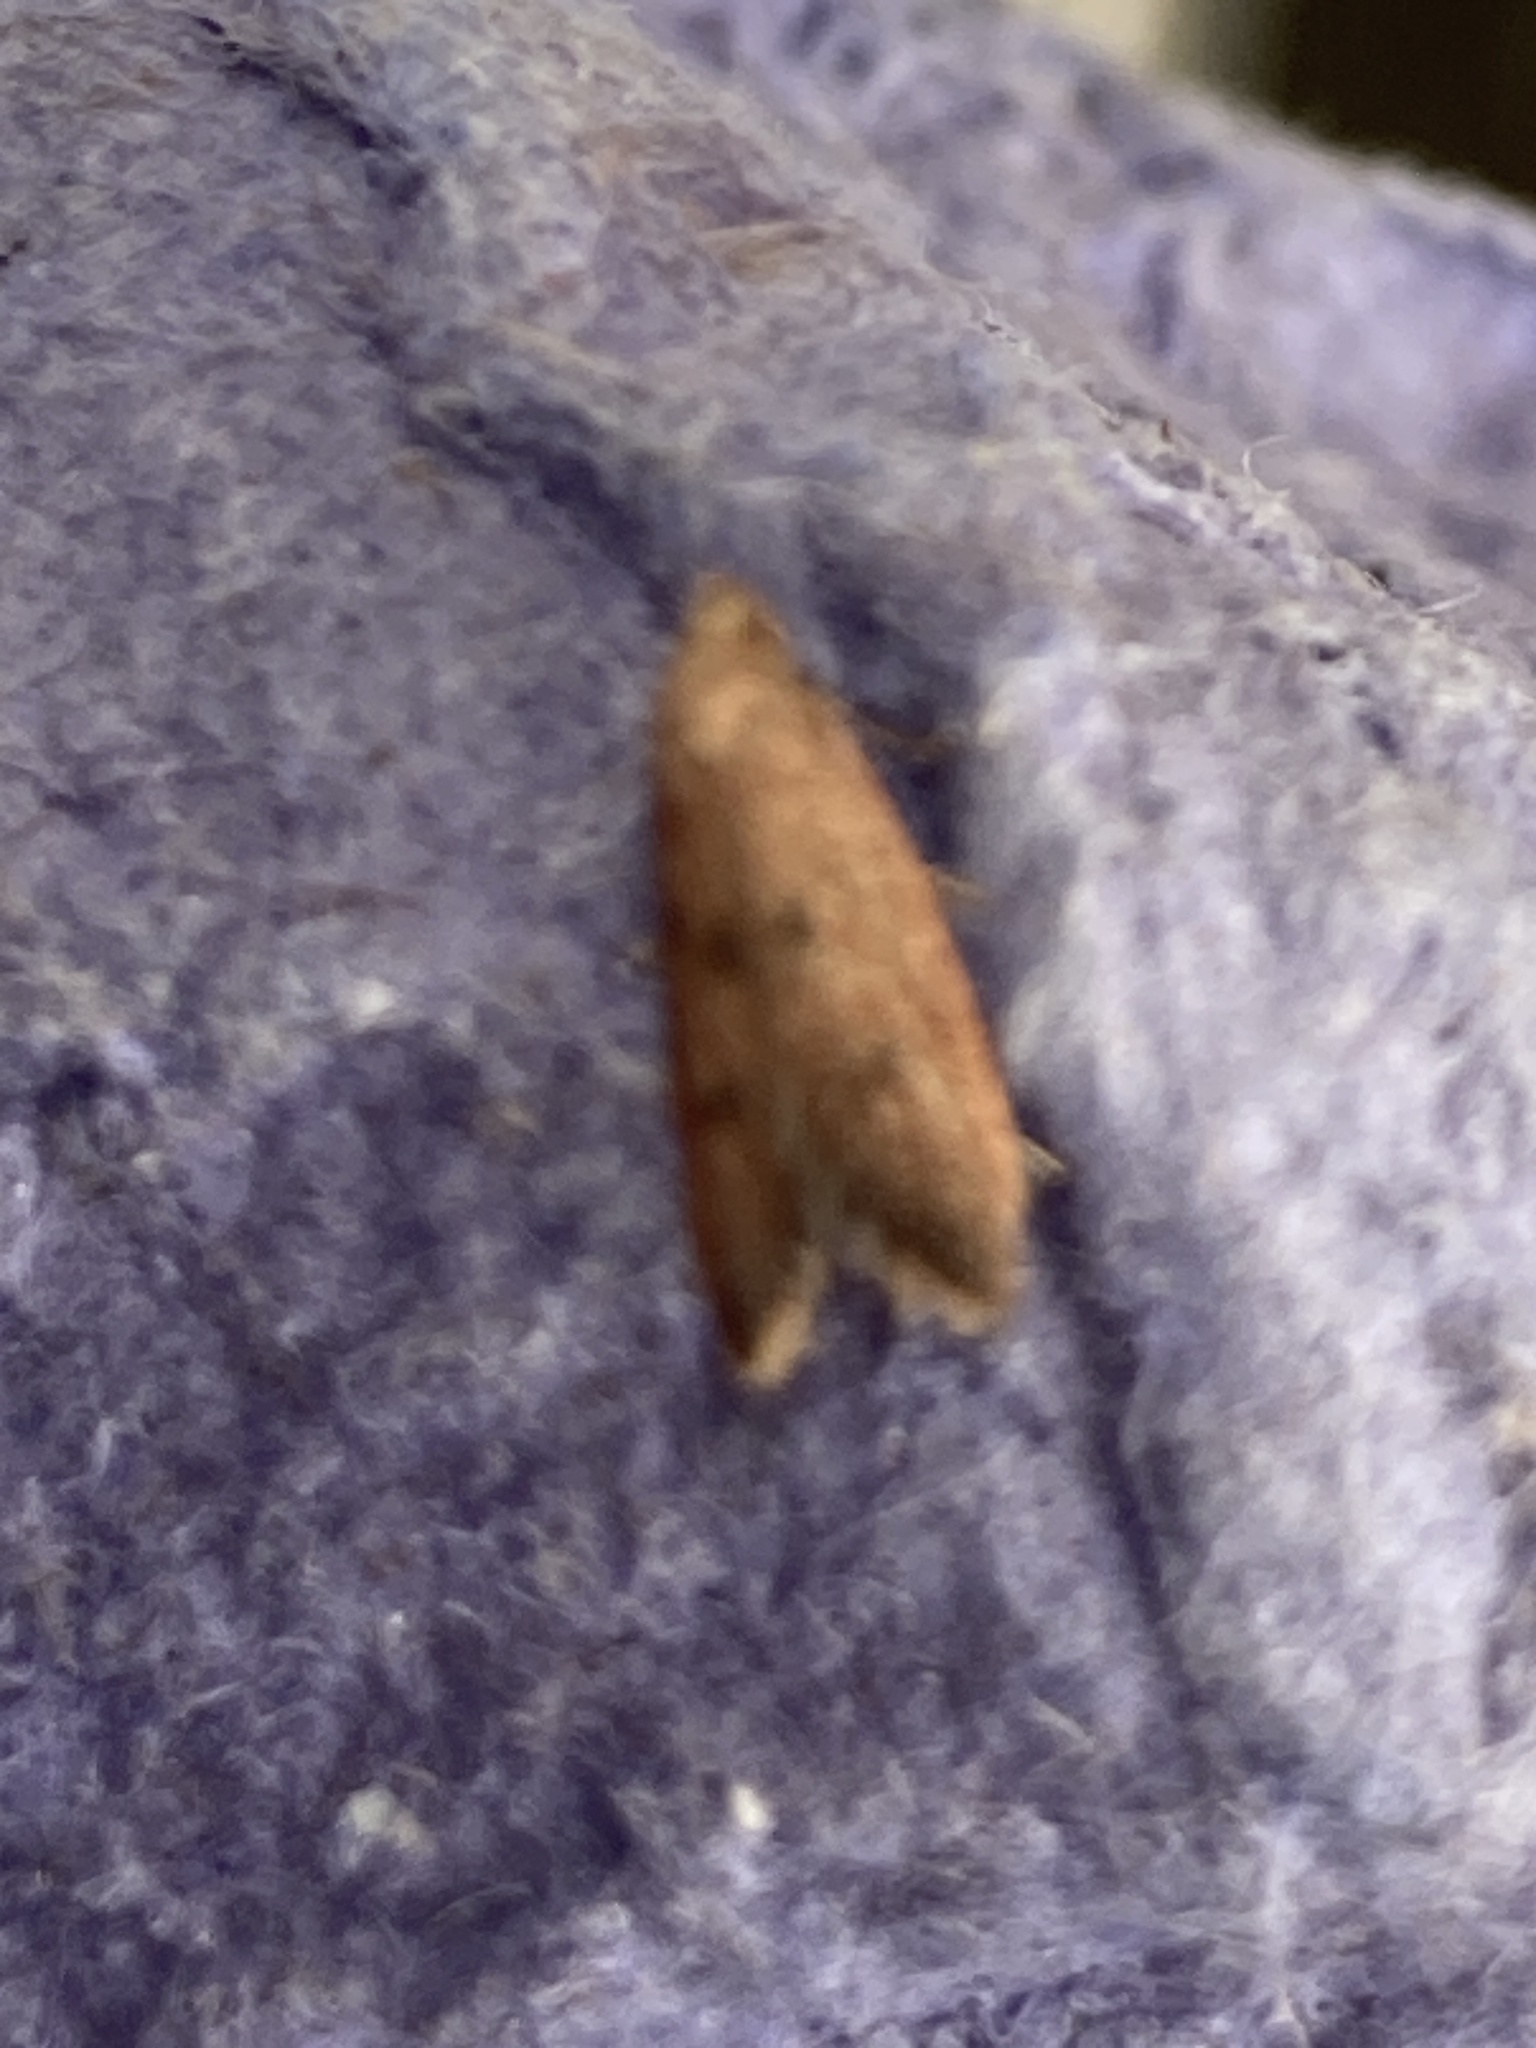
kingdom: Animalia
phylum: Arthropoda
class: Insecta
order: Lepidoptera
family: Oecophoridae
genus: Tachystola
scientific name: Tachystola acroxantha
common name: Ruddy streak
